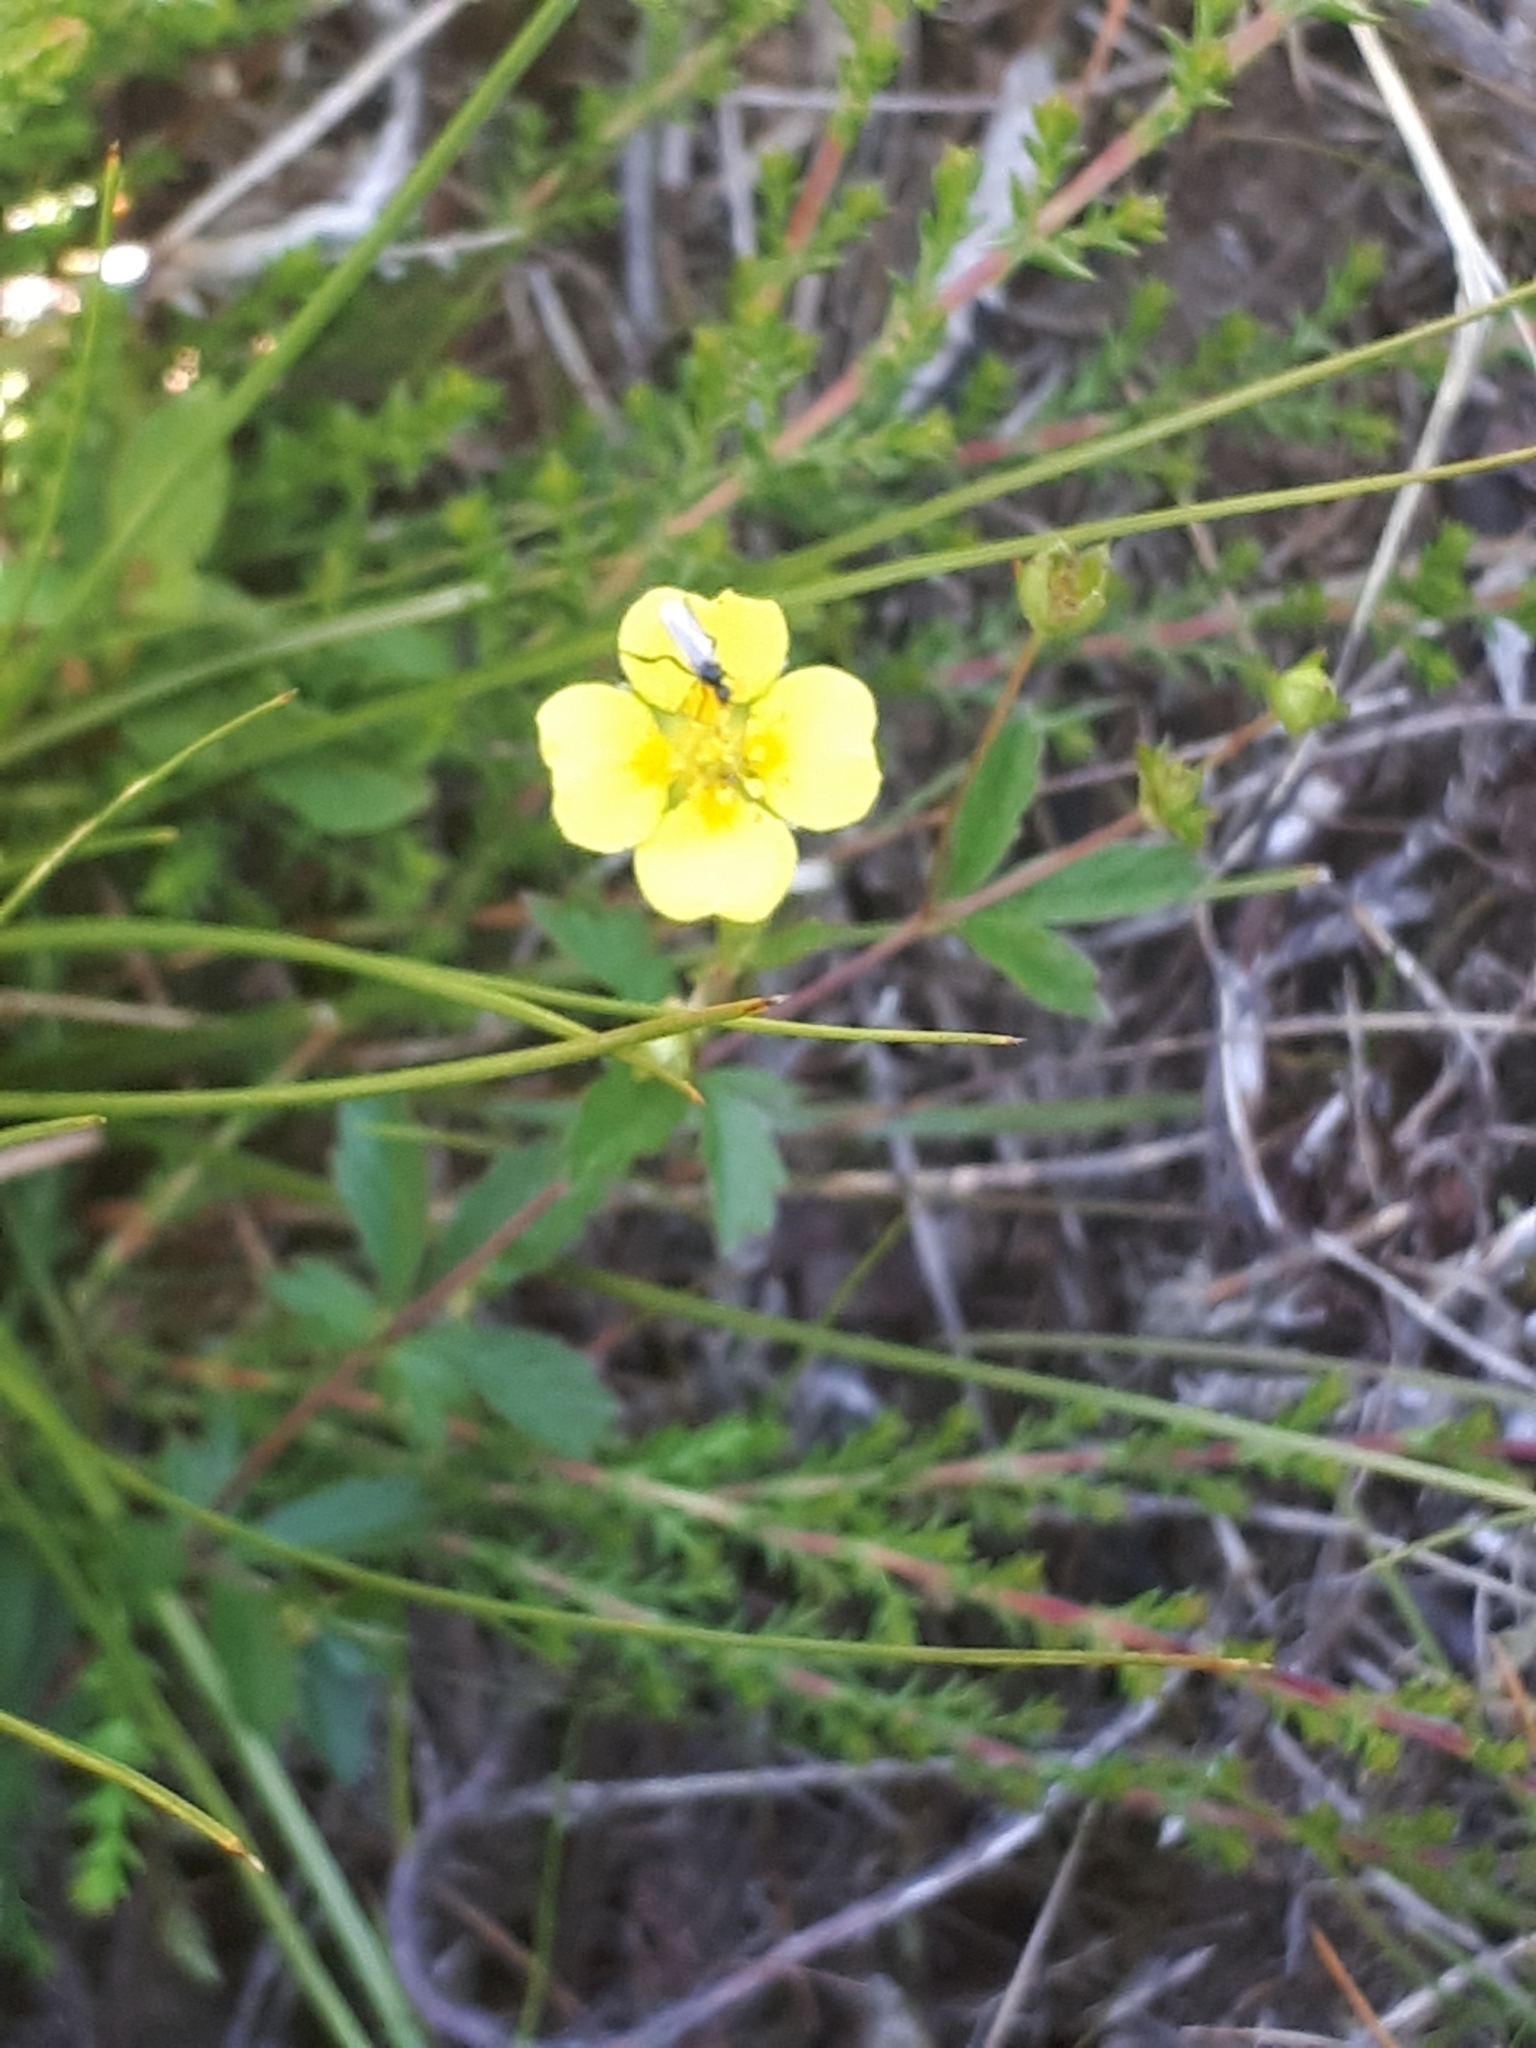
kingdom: Plantae
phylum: Tracheophyta
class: Magnoliopsida
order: Rosales
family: Rosaceae
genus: Potentilla
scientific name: Potentilla erecta
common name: Tormentil
